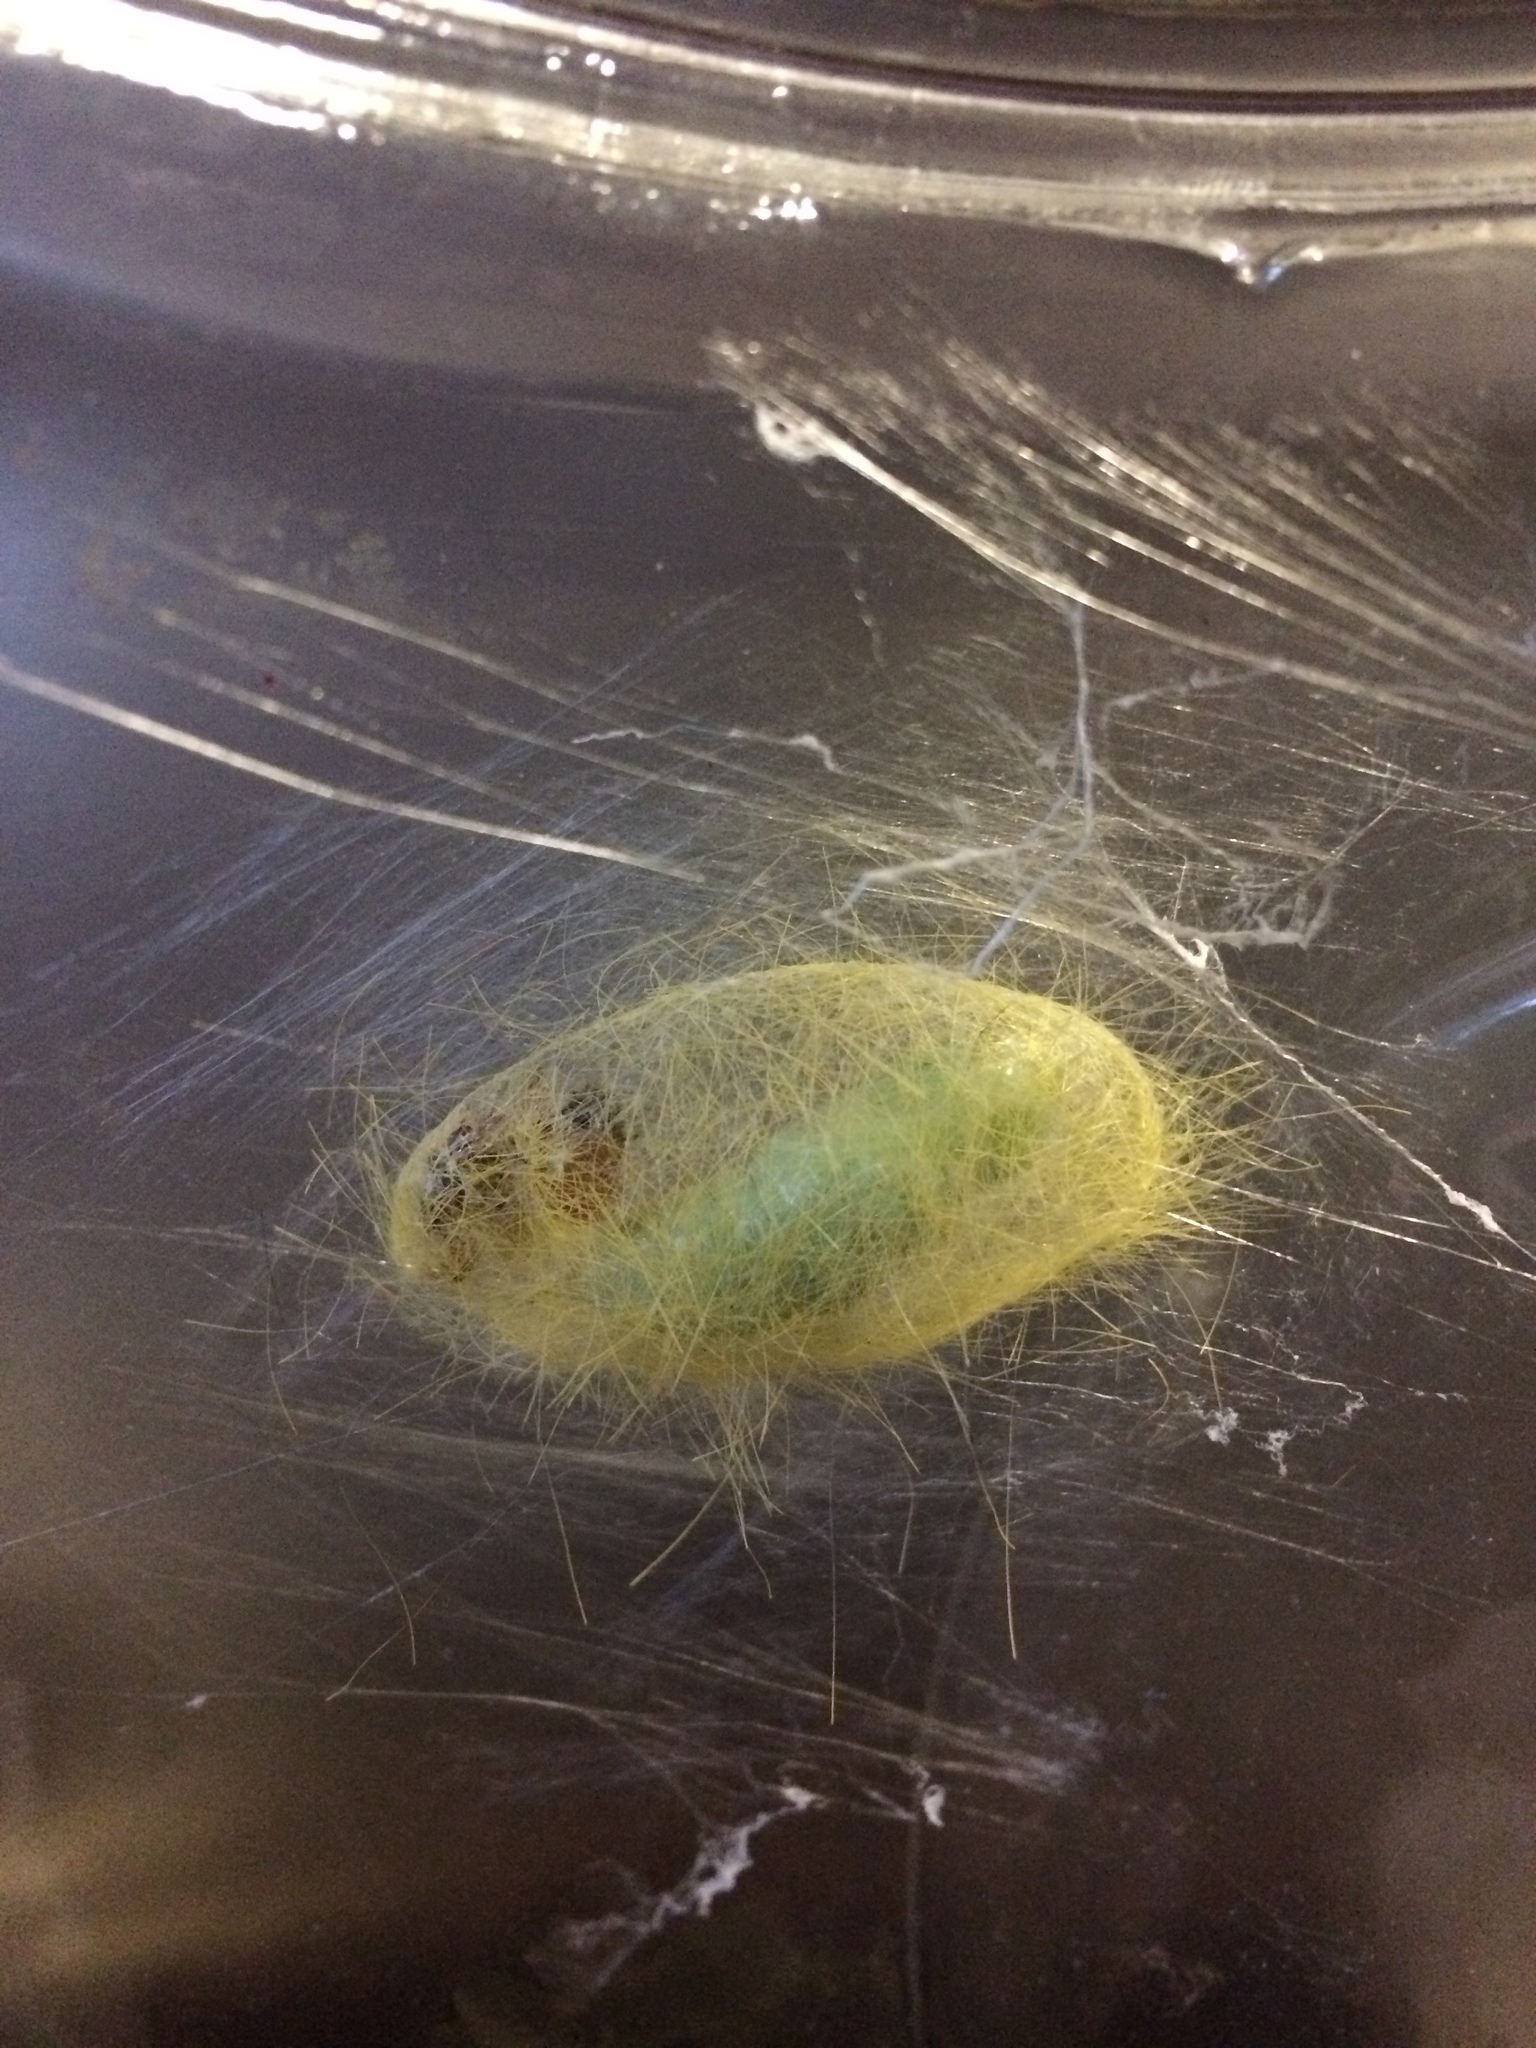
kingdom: Animalia
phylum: Arthropoda
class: Insecta
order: Lepidoptera
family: Erebidae
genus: Dasychira
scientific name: Dasychira georgiana
